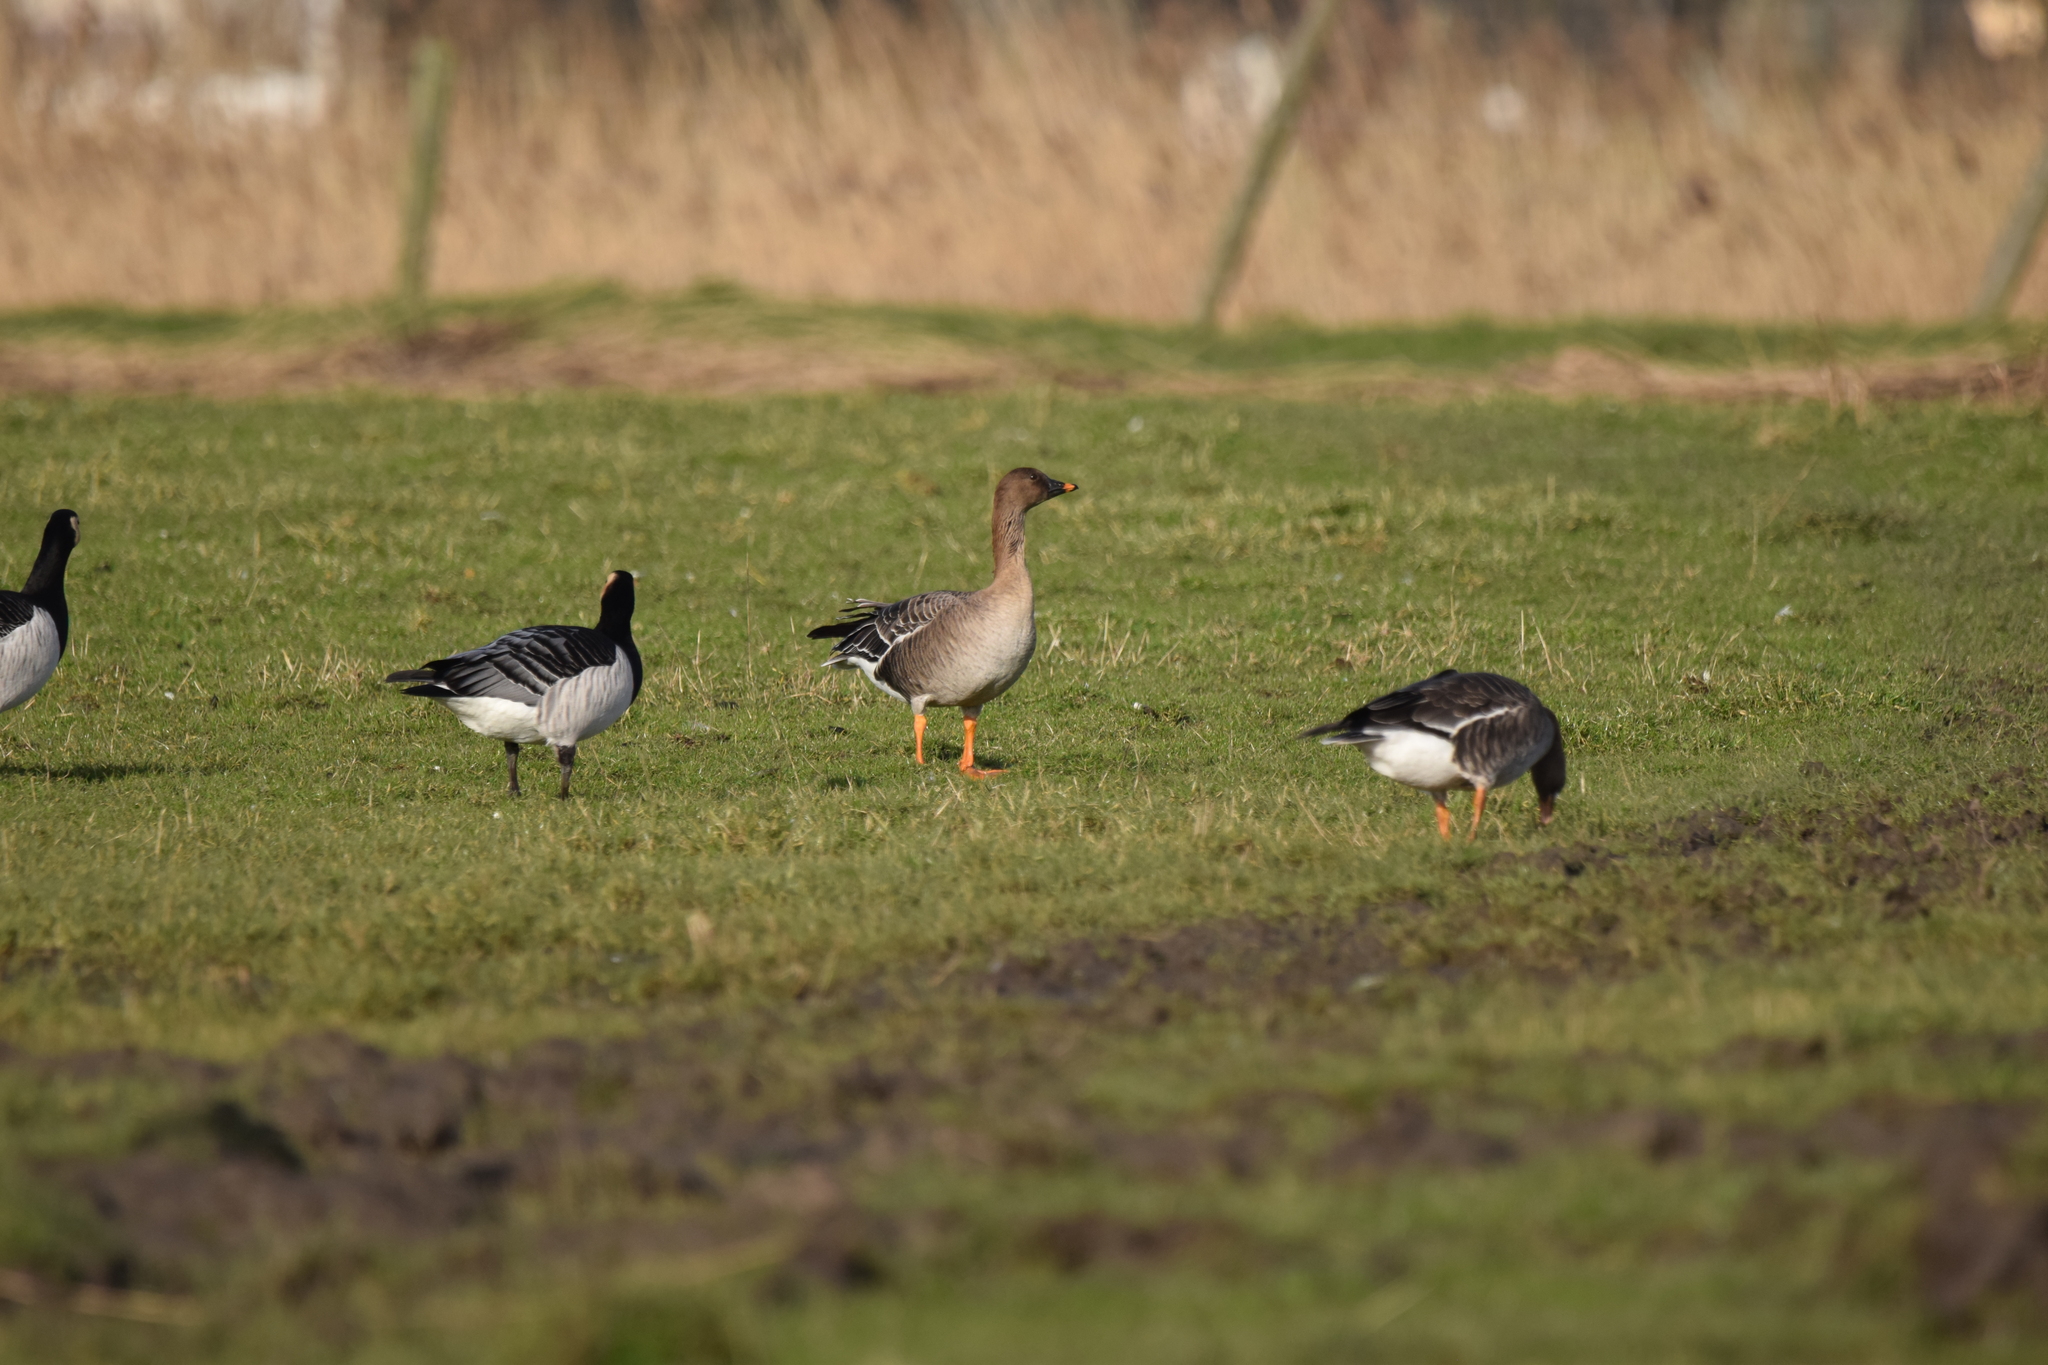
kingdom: Animalia
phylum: Chordata
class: Aves
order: Anseriformes
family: Anatidae
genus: Anser
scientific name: Anser serrirostris
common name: Tundra bean goose
